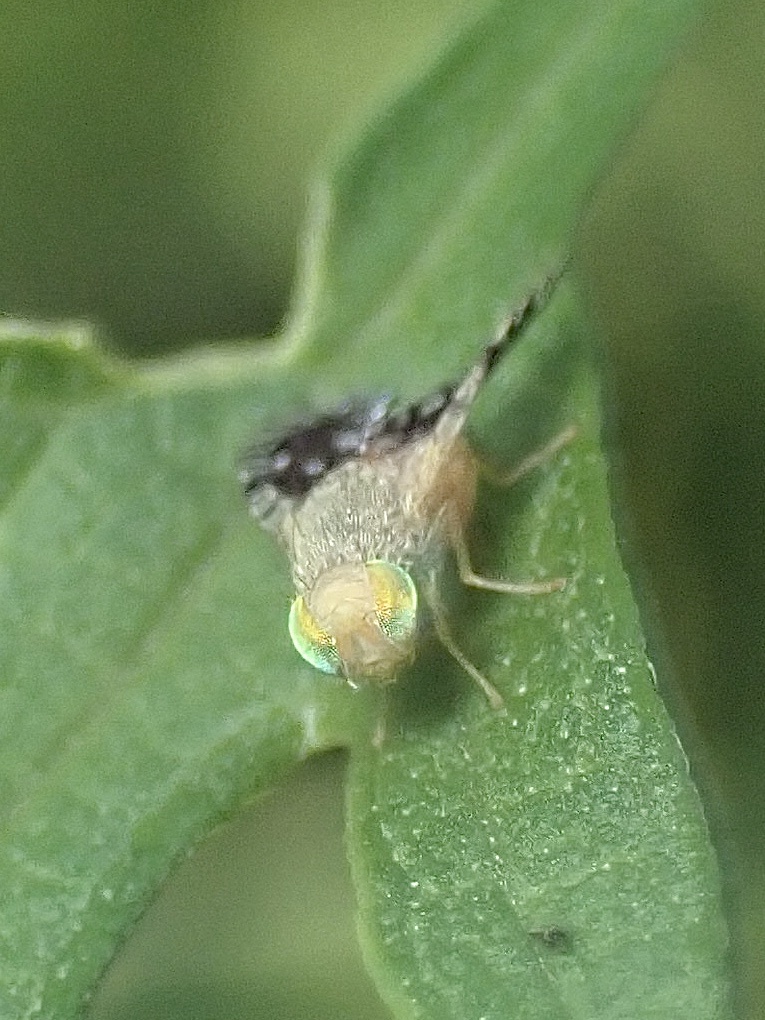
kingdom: Animalia
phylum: Arthropoda
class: Insecta
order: Diptera
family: Tephritidae
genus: Euaresta
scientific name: Euaresta bella
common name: Common ragweed fruit fly
